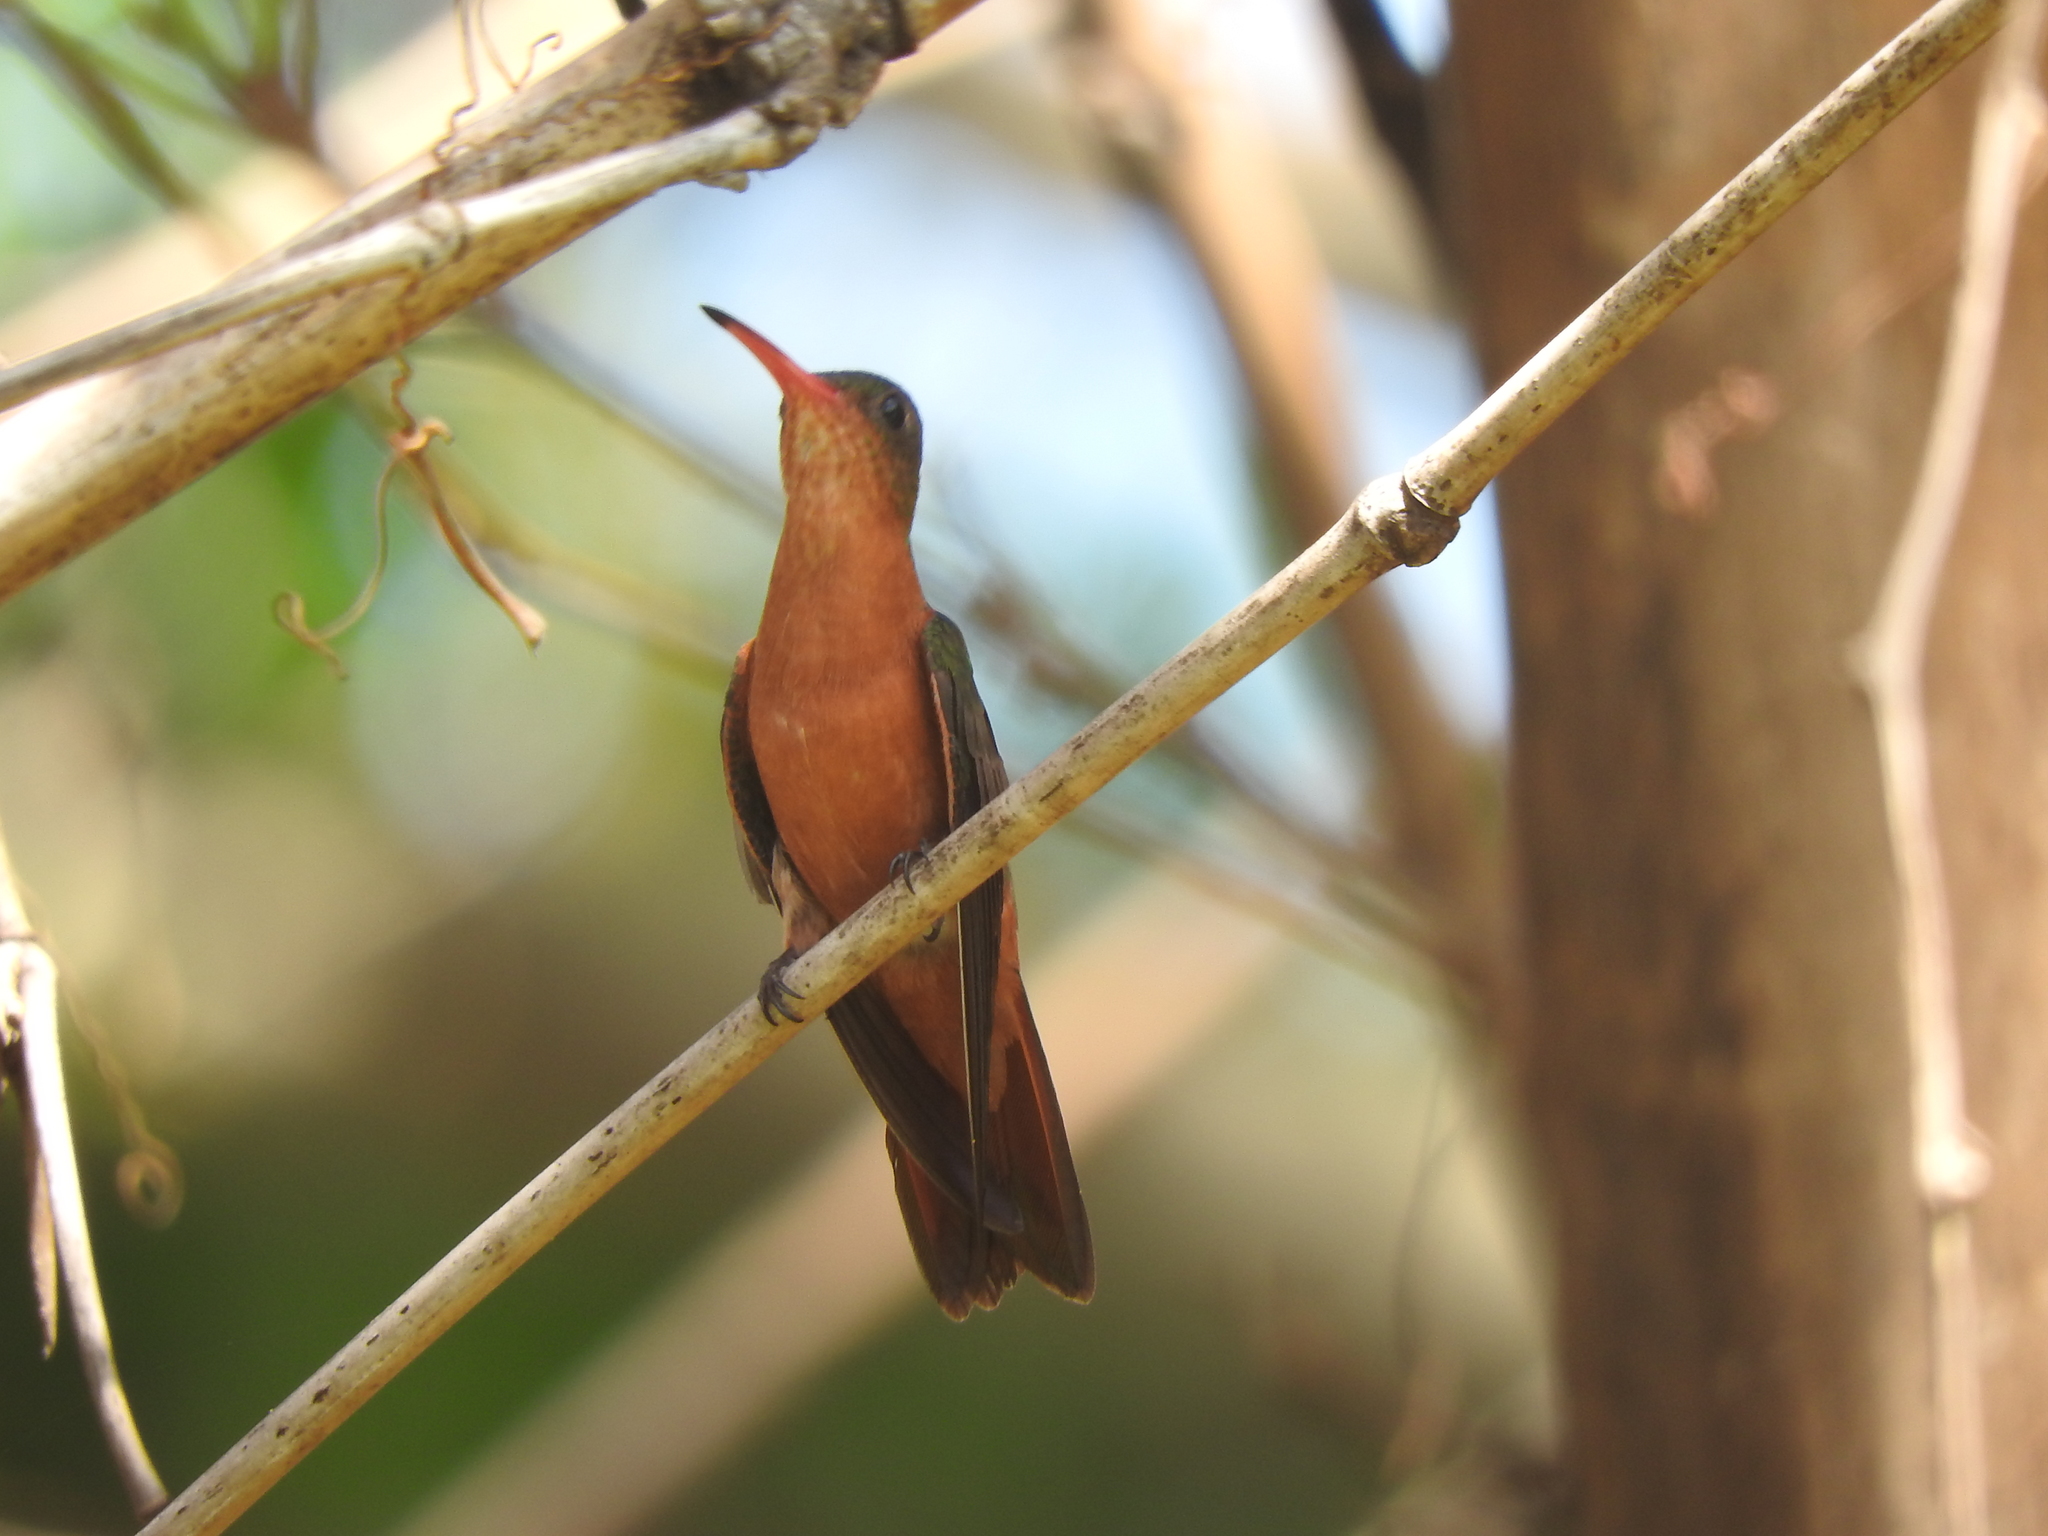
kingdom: Animalia
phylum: Chordata
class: Aves
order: Apodiformes
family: Trochilidae
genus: Amazilia
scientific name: Amazilia rutila
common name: Cinnamon hummingbird
